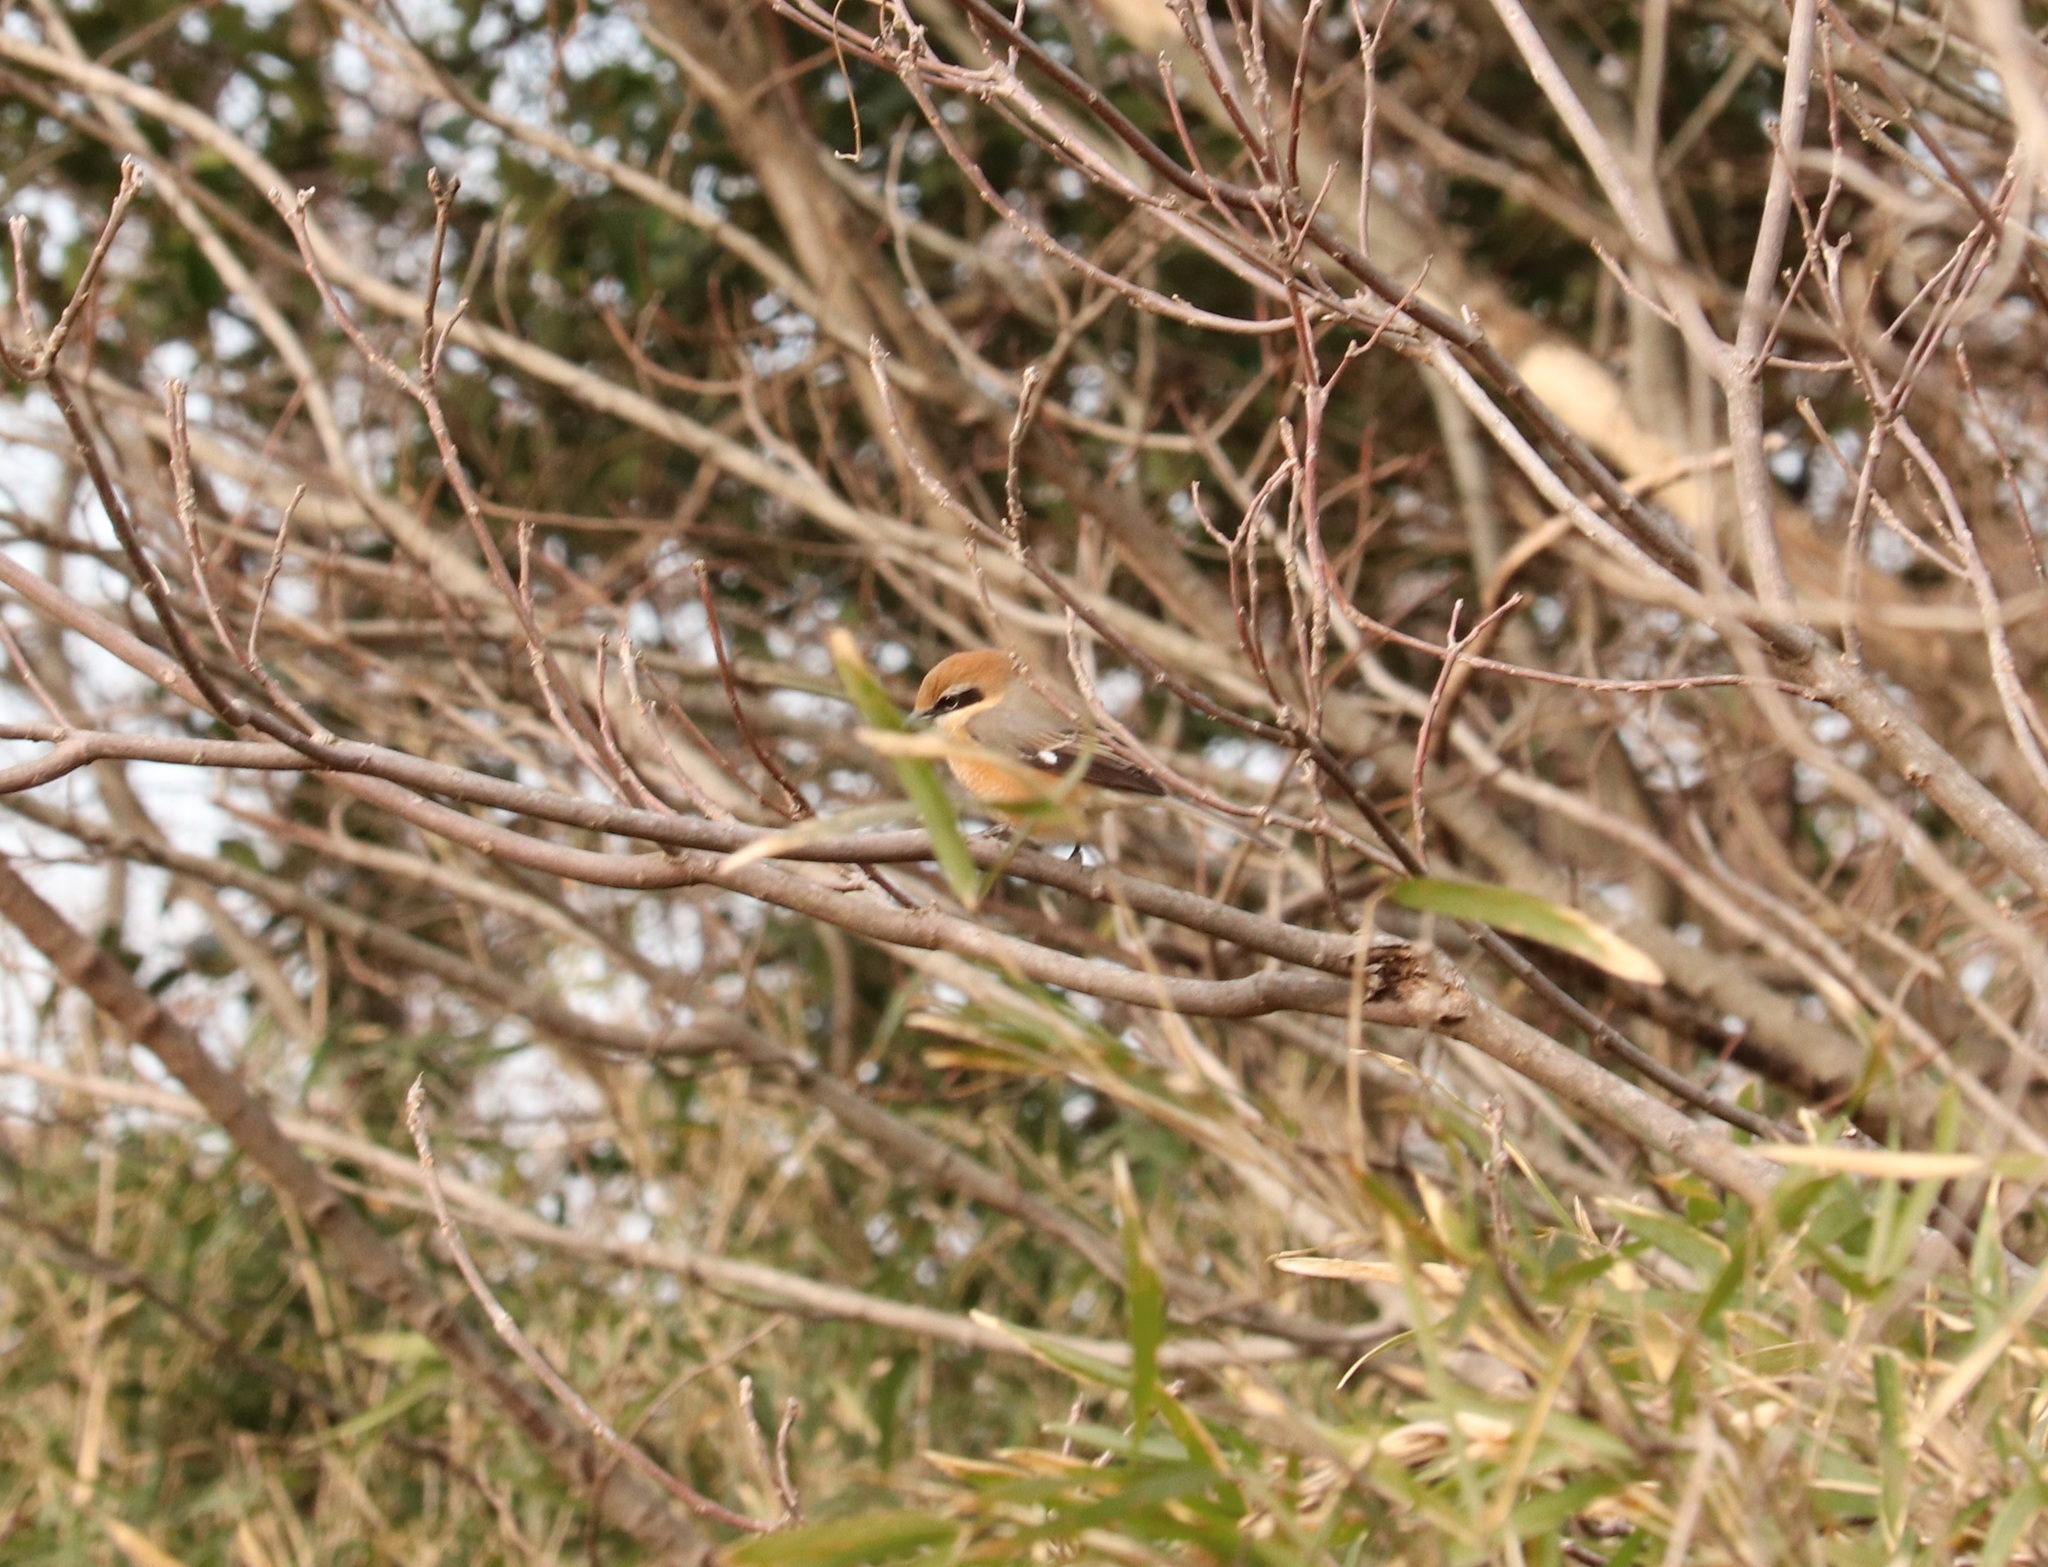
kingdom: Animalia
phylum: Chordata
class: Aves
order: Passeriformes
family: Laniidae
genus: Lanius
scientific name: Lanius bucephalus
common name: Bull-headed shrike
